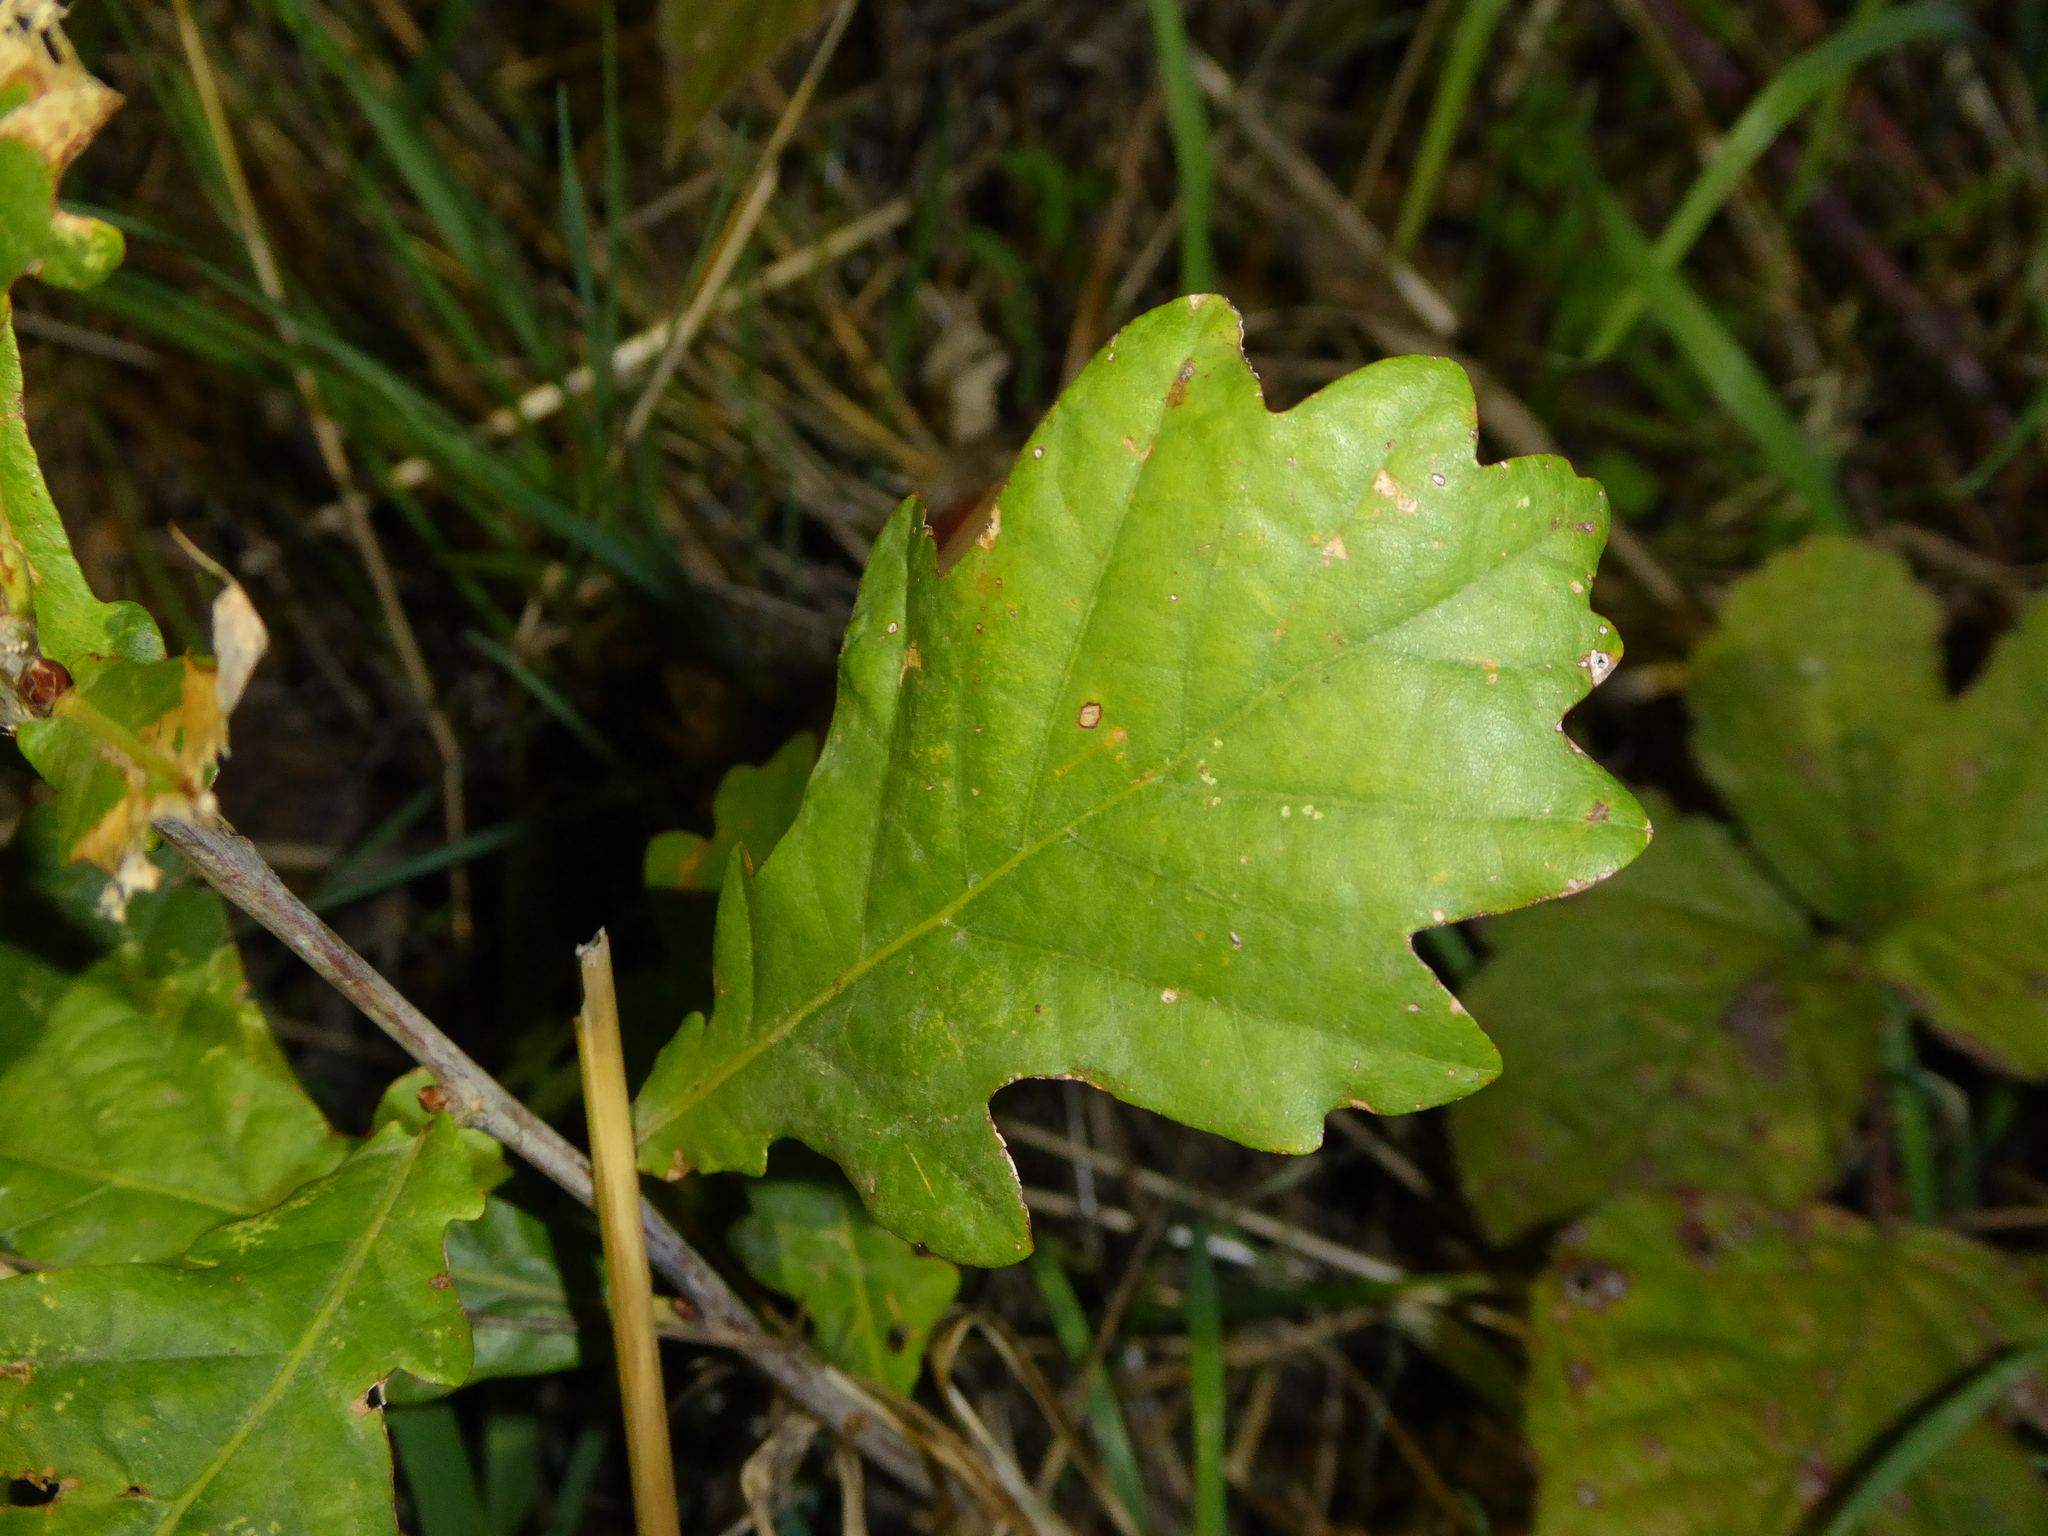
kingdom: Plantae
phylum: Tracheophyta
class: Magnoliopsida
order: Fagales
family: Fagaceae
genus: Quercus
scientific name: Quercus robur
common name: Pedunculate oak
